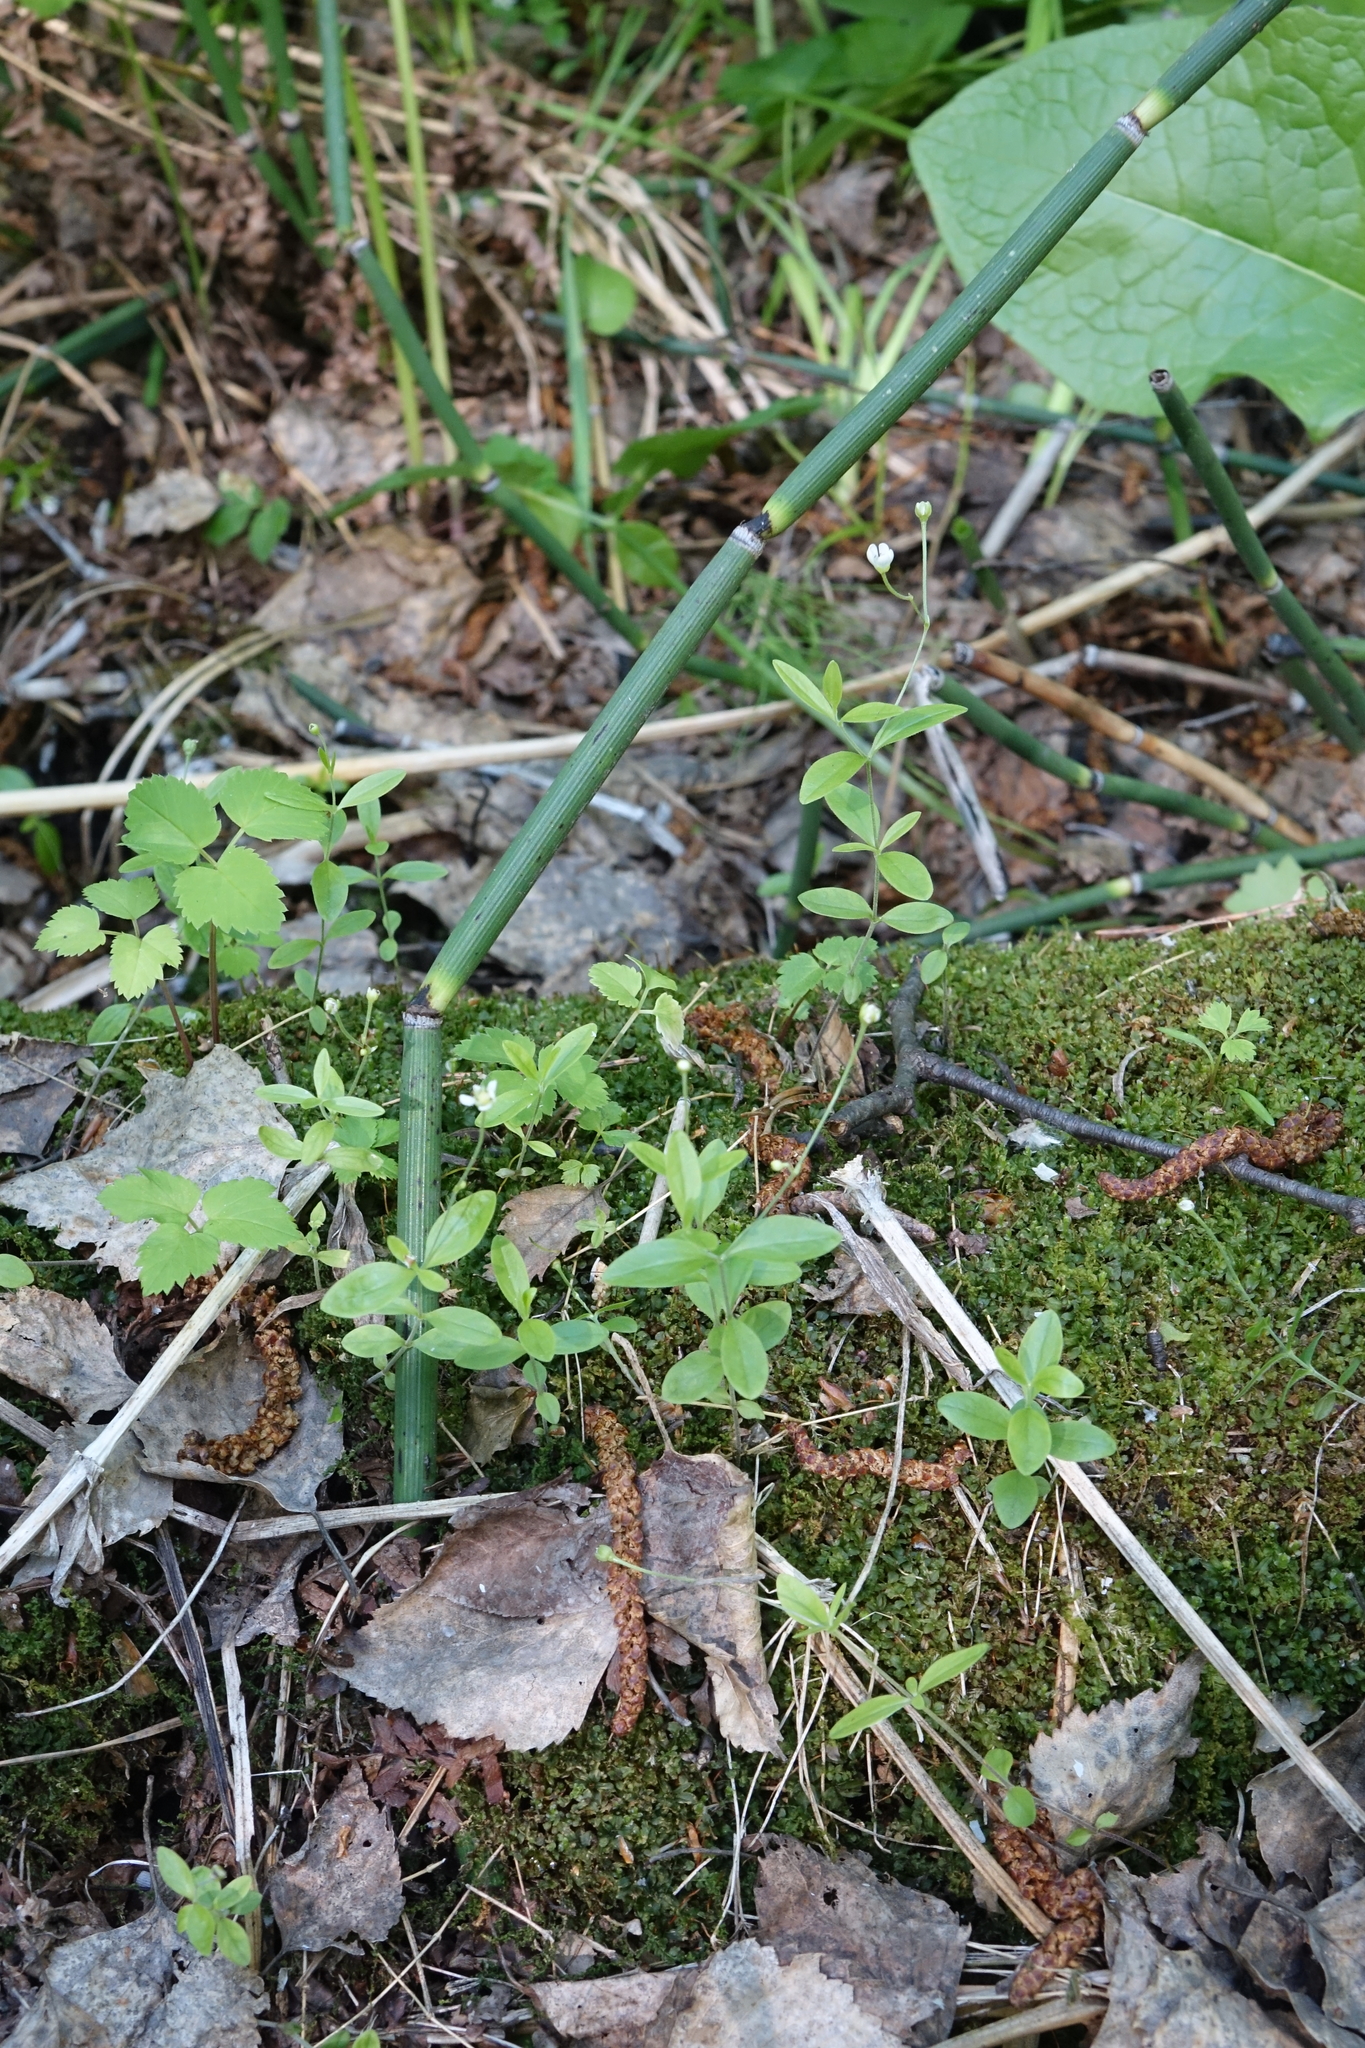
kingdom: Plantae
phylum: Tracheophyta
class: Magnoliopsida
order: Caryophyllales
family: Caryophyllaceae
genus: Moehringia
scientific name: Moehringia lateriflora
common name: Blunt-leaved sandwort
